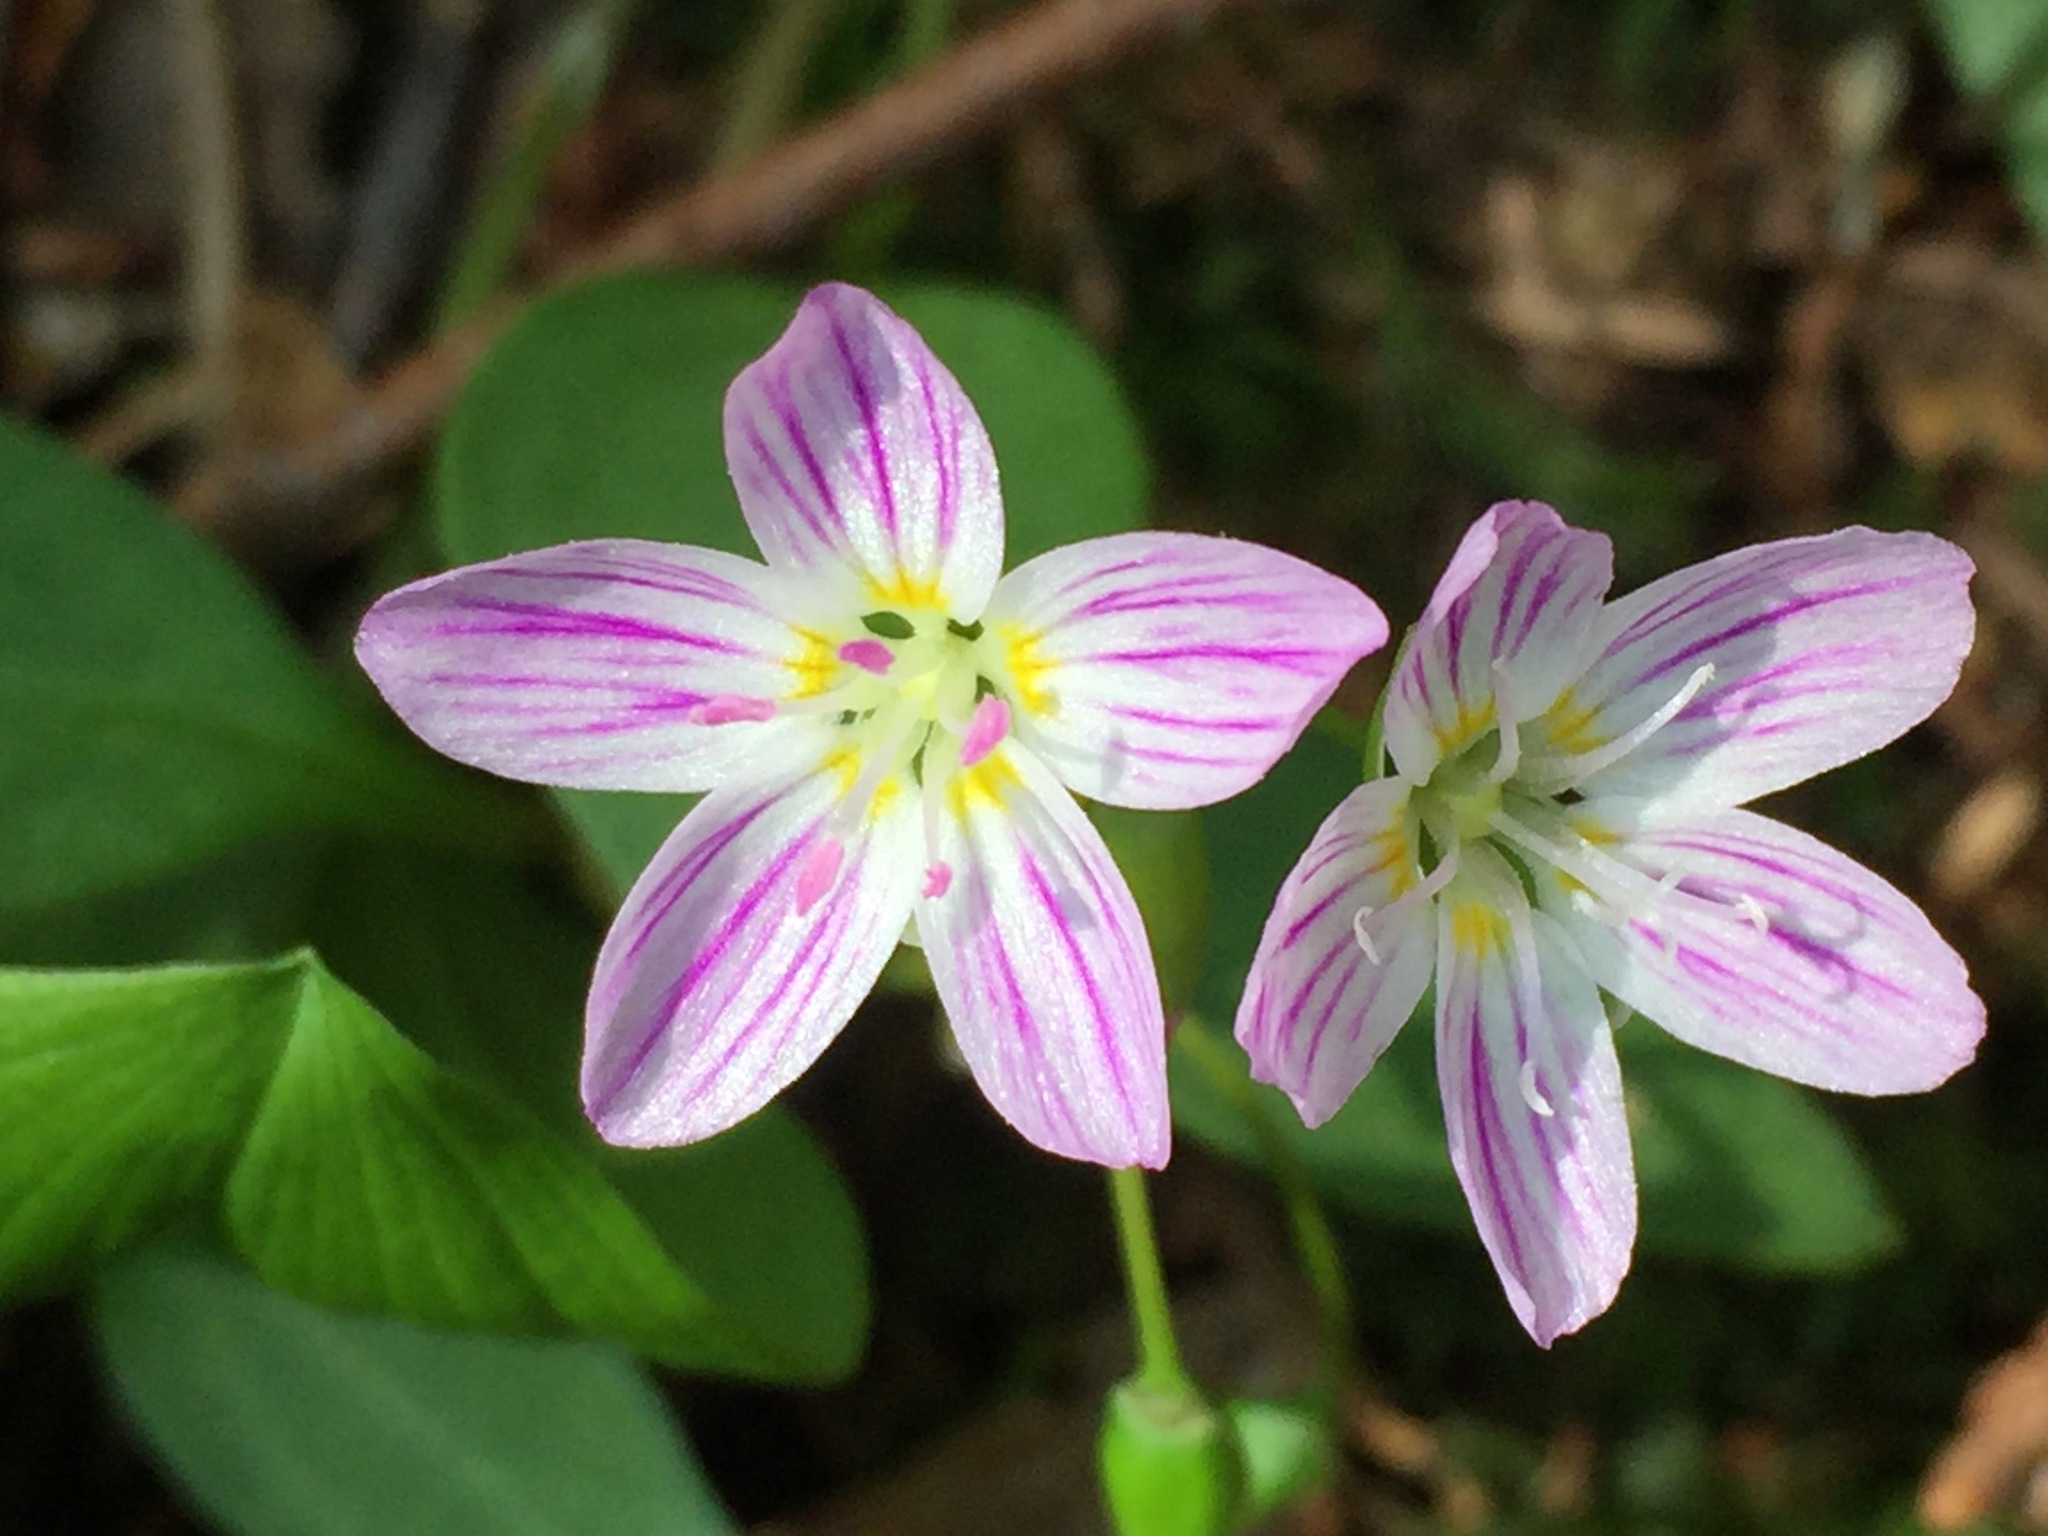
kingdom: Plantae
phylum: Tracheophyta
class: Magnoliopsida
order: Caryophyllales
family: Montiaceae
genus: Claytonia
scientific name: Claytonia caroliniana
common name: Carolina spring beauty
